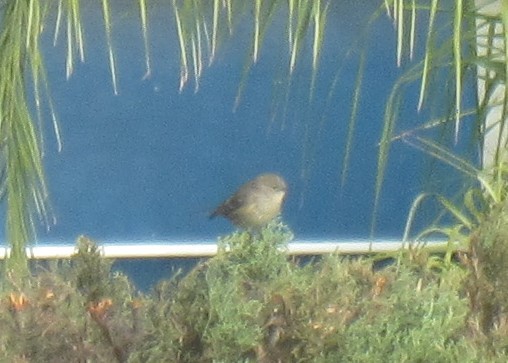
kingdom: Animalia
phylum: Chordata
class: Aves
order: Passeriformes
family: Parulidae
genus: Setophaga
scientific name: Setophaga coronata
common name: Myrtle warbler
